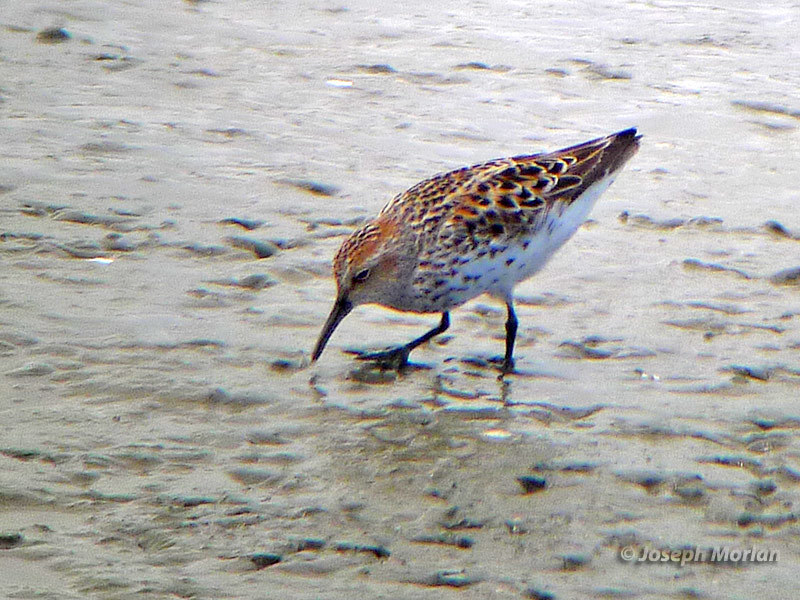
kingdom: Animalia
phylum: Chordata
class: Aves
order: Charadriiformes
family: Scolopacidae
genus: Calidris
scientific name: Calidris mauri
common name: Western sandpiper
